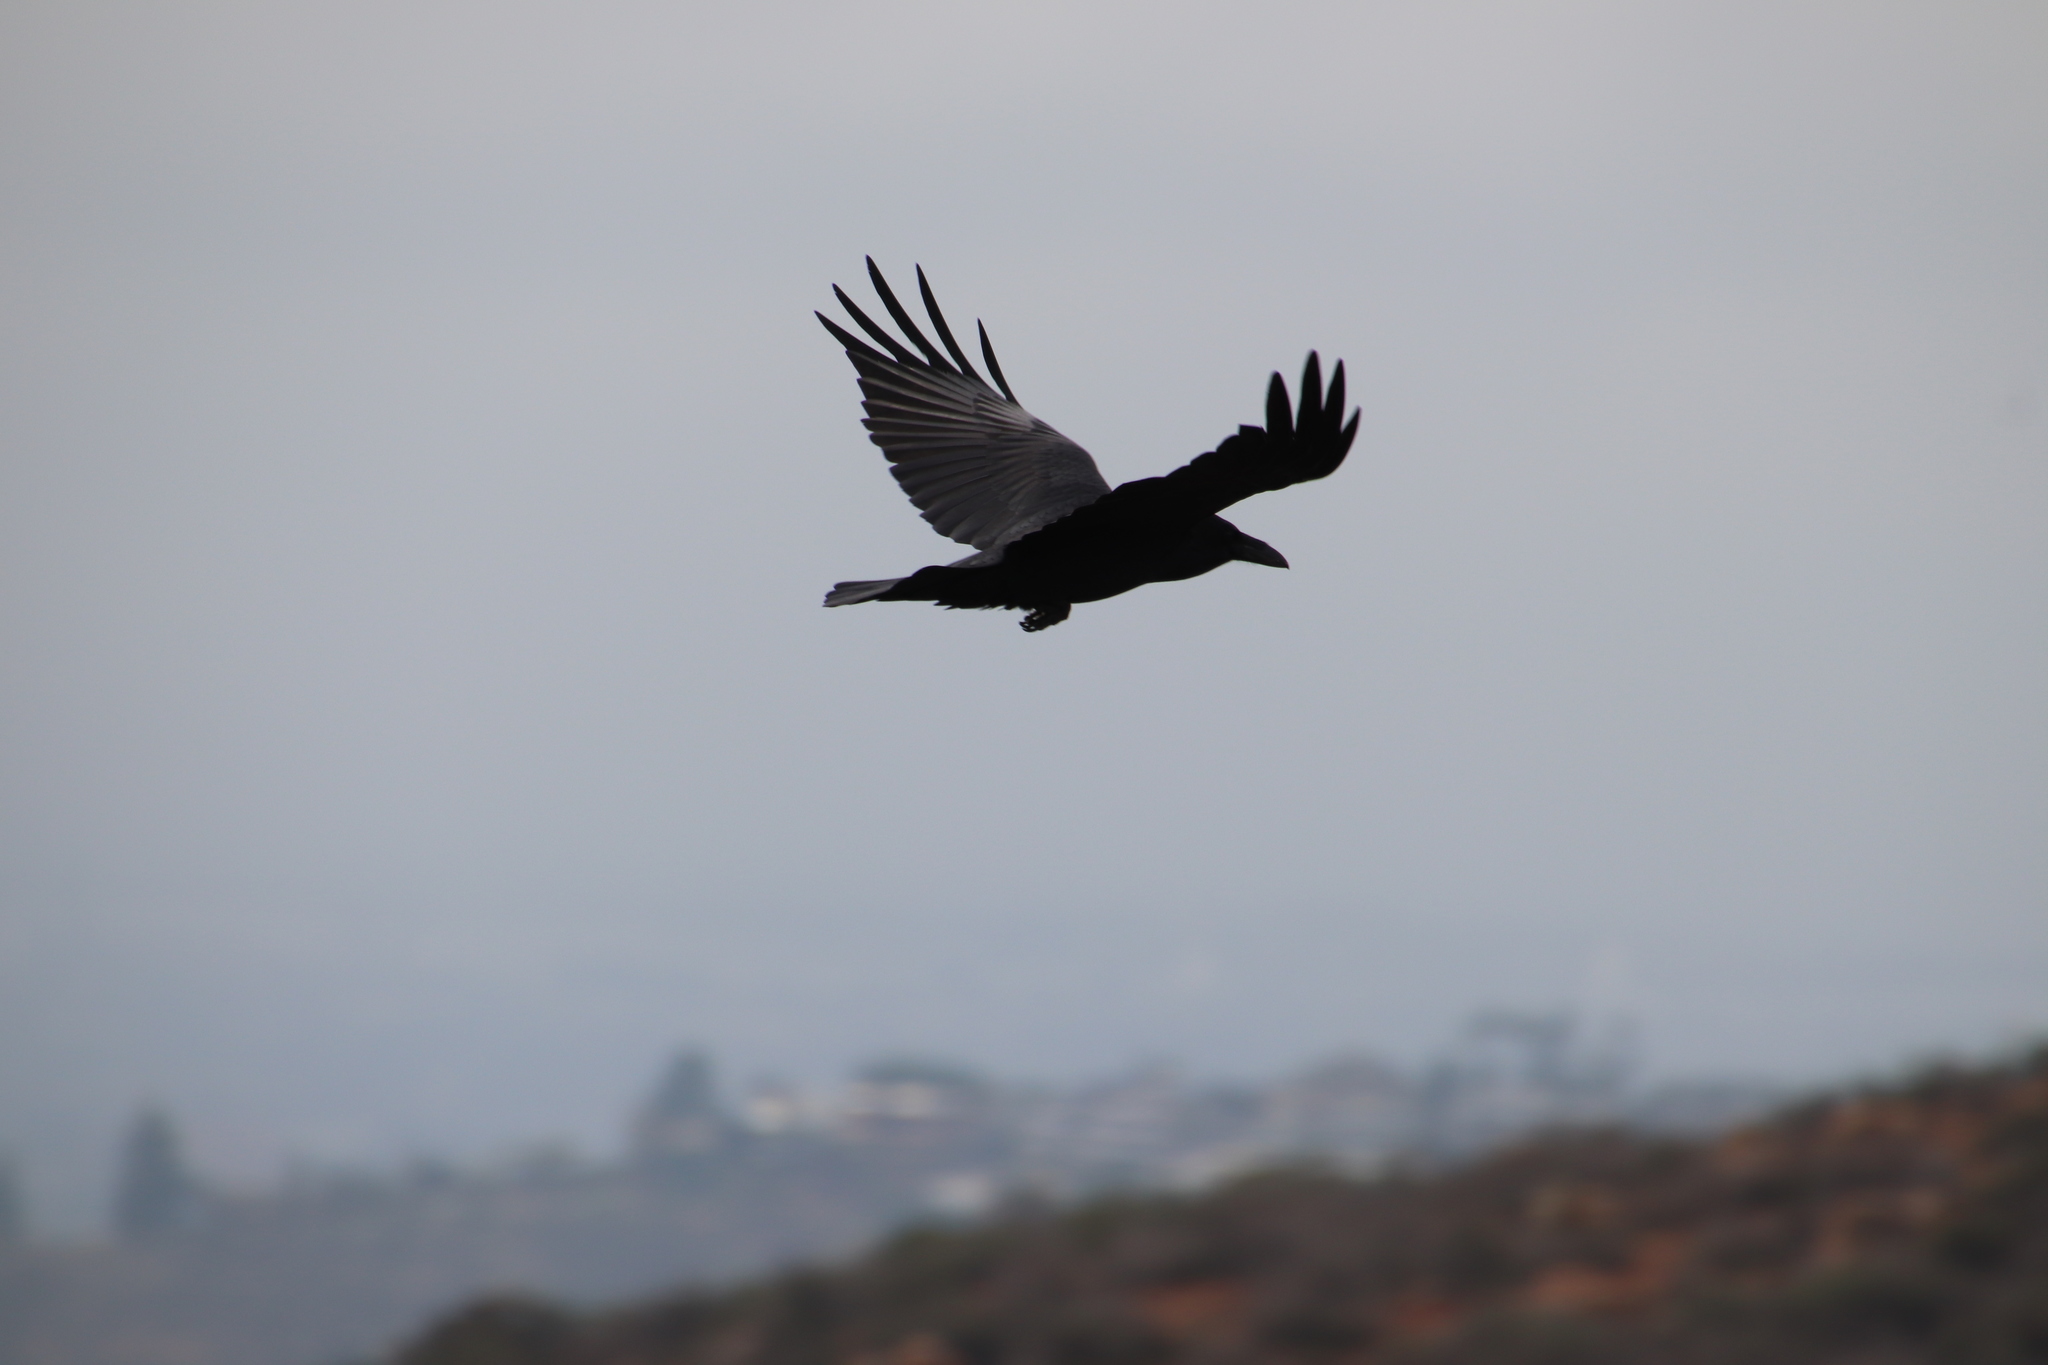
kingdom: Animalia
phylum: Chordata
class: Aves
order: Passeriformes
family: Corvidae
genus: Corvus
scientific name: Corvus corax
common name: Common raven
